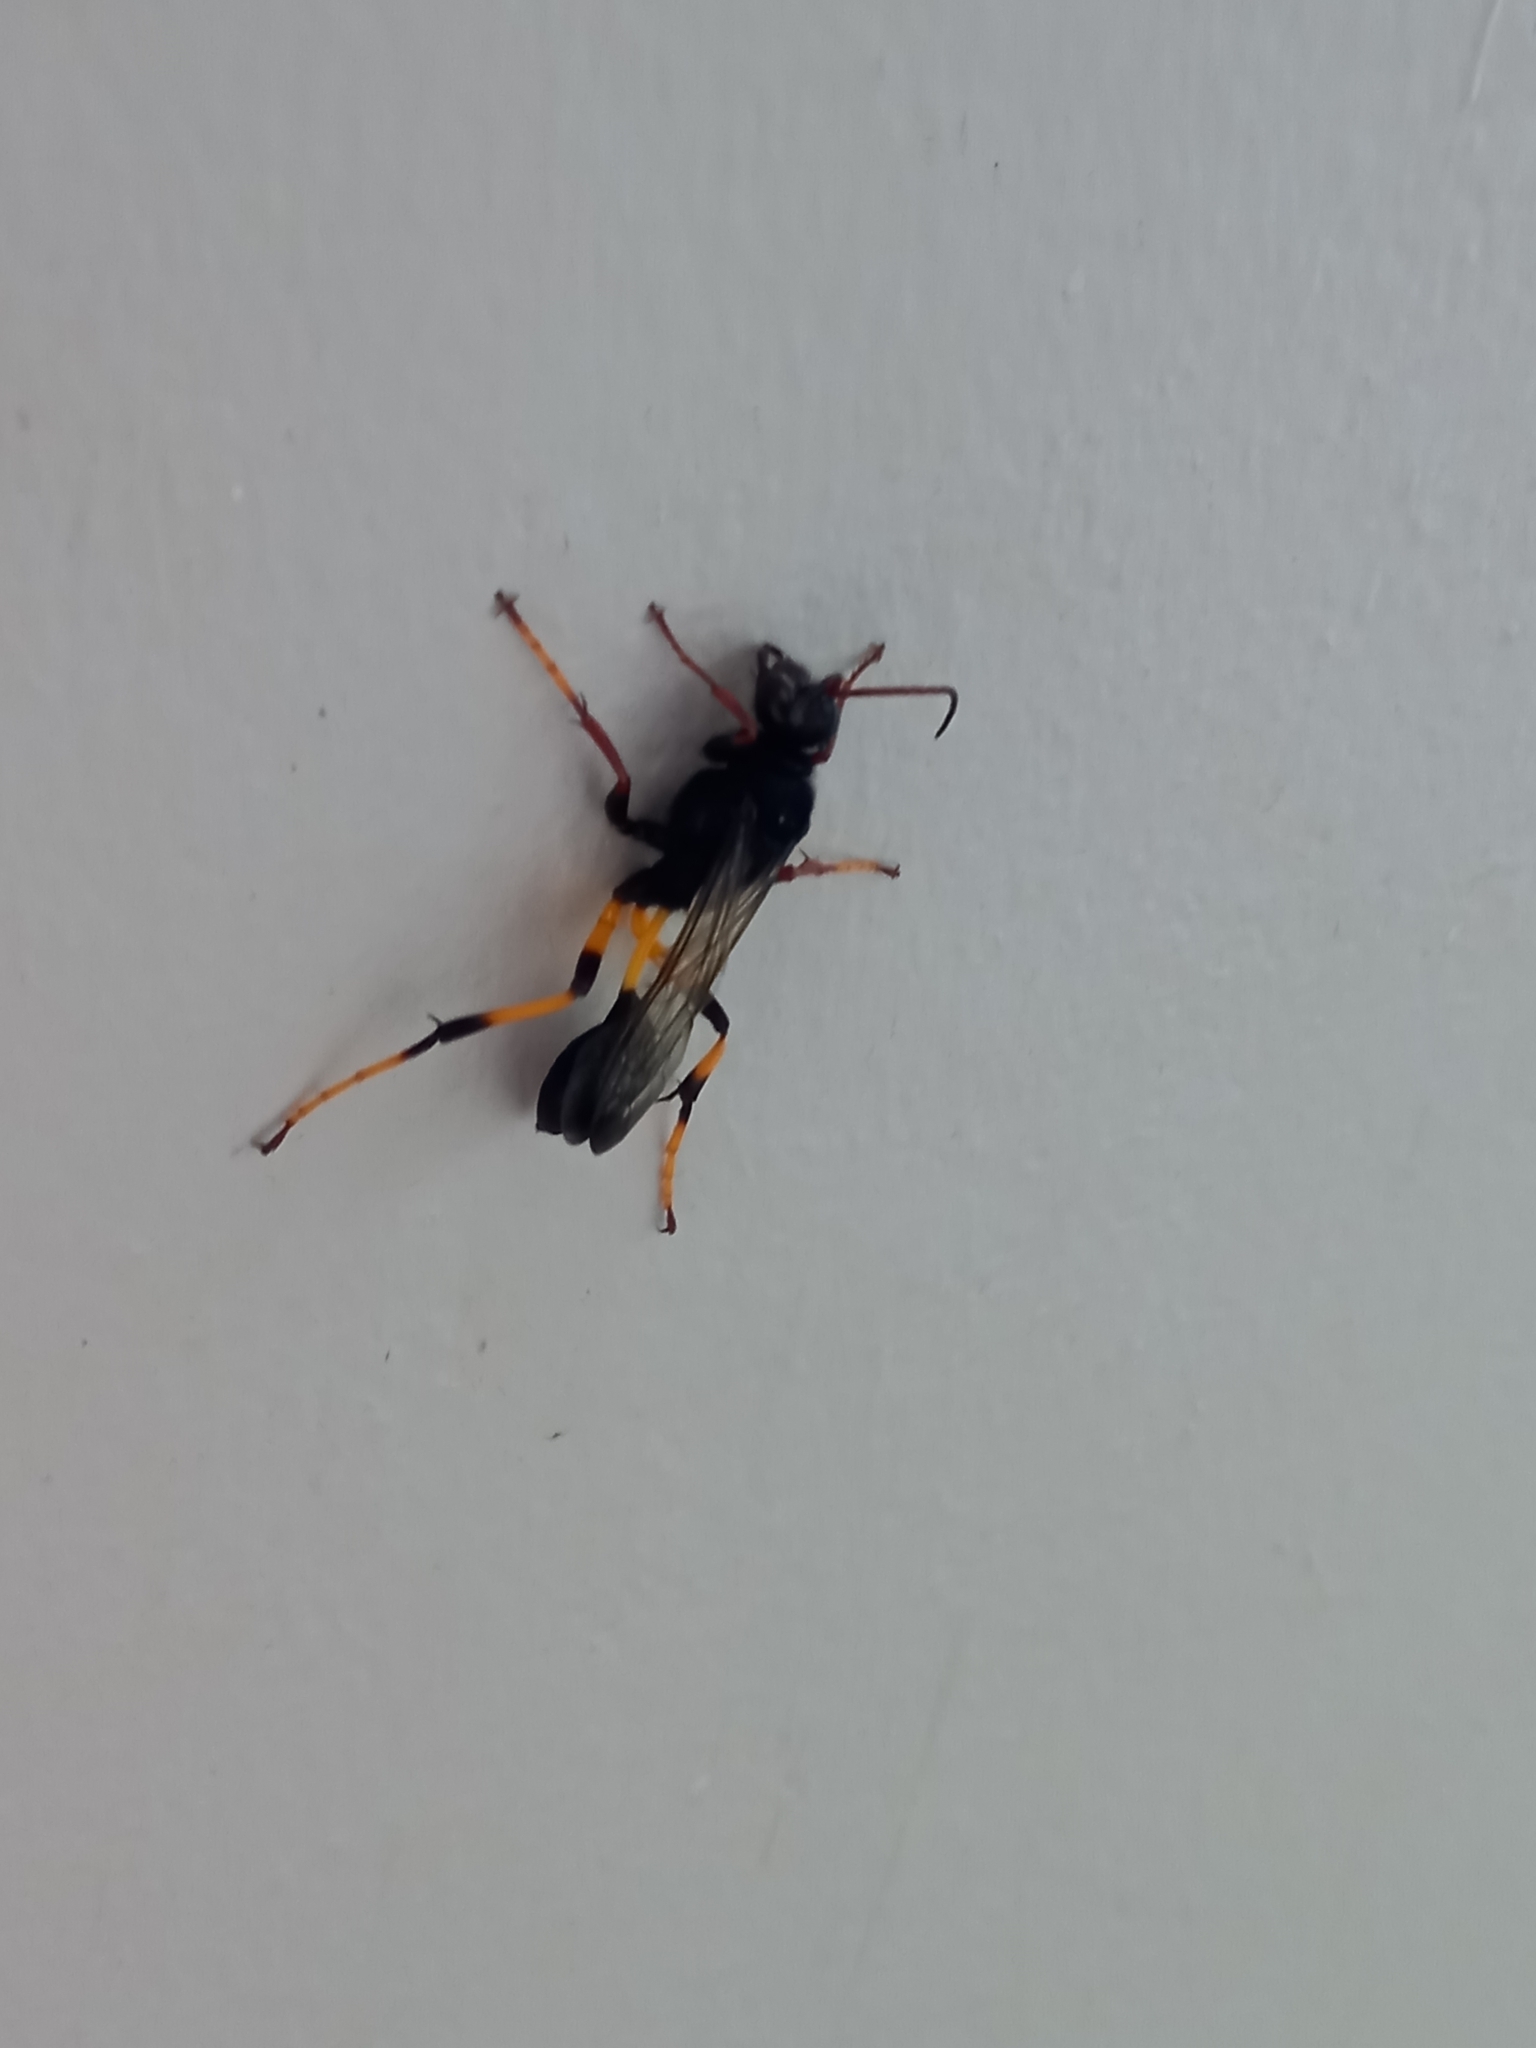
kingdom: Animalia
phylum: Arthropoda
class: Insecta
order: Hymenoptera
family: Sphecidae
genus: Sceliphron
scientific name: Sceliphron spirifex
